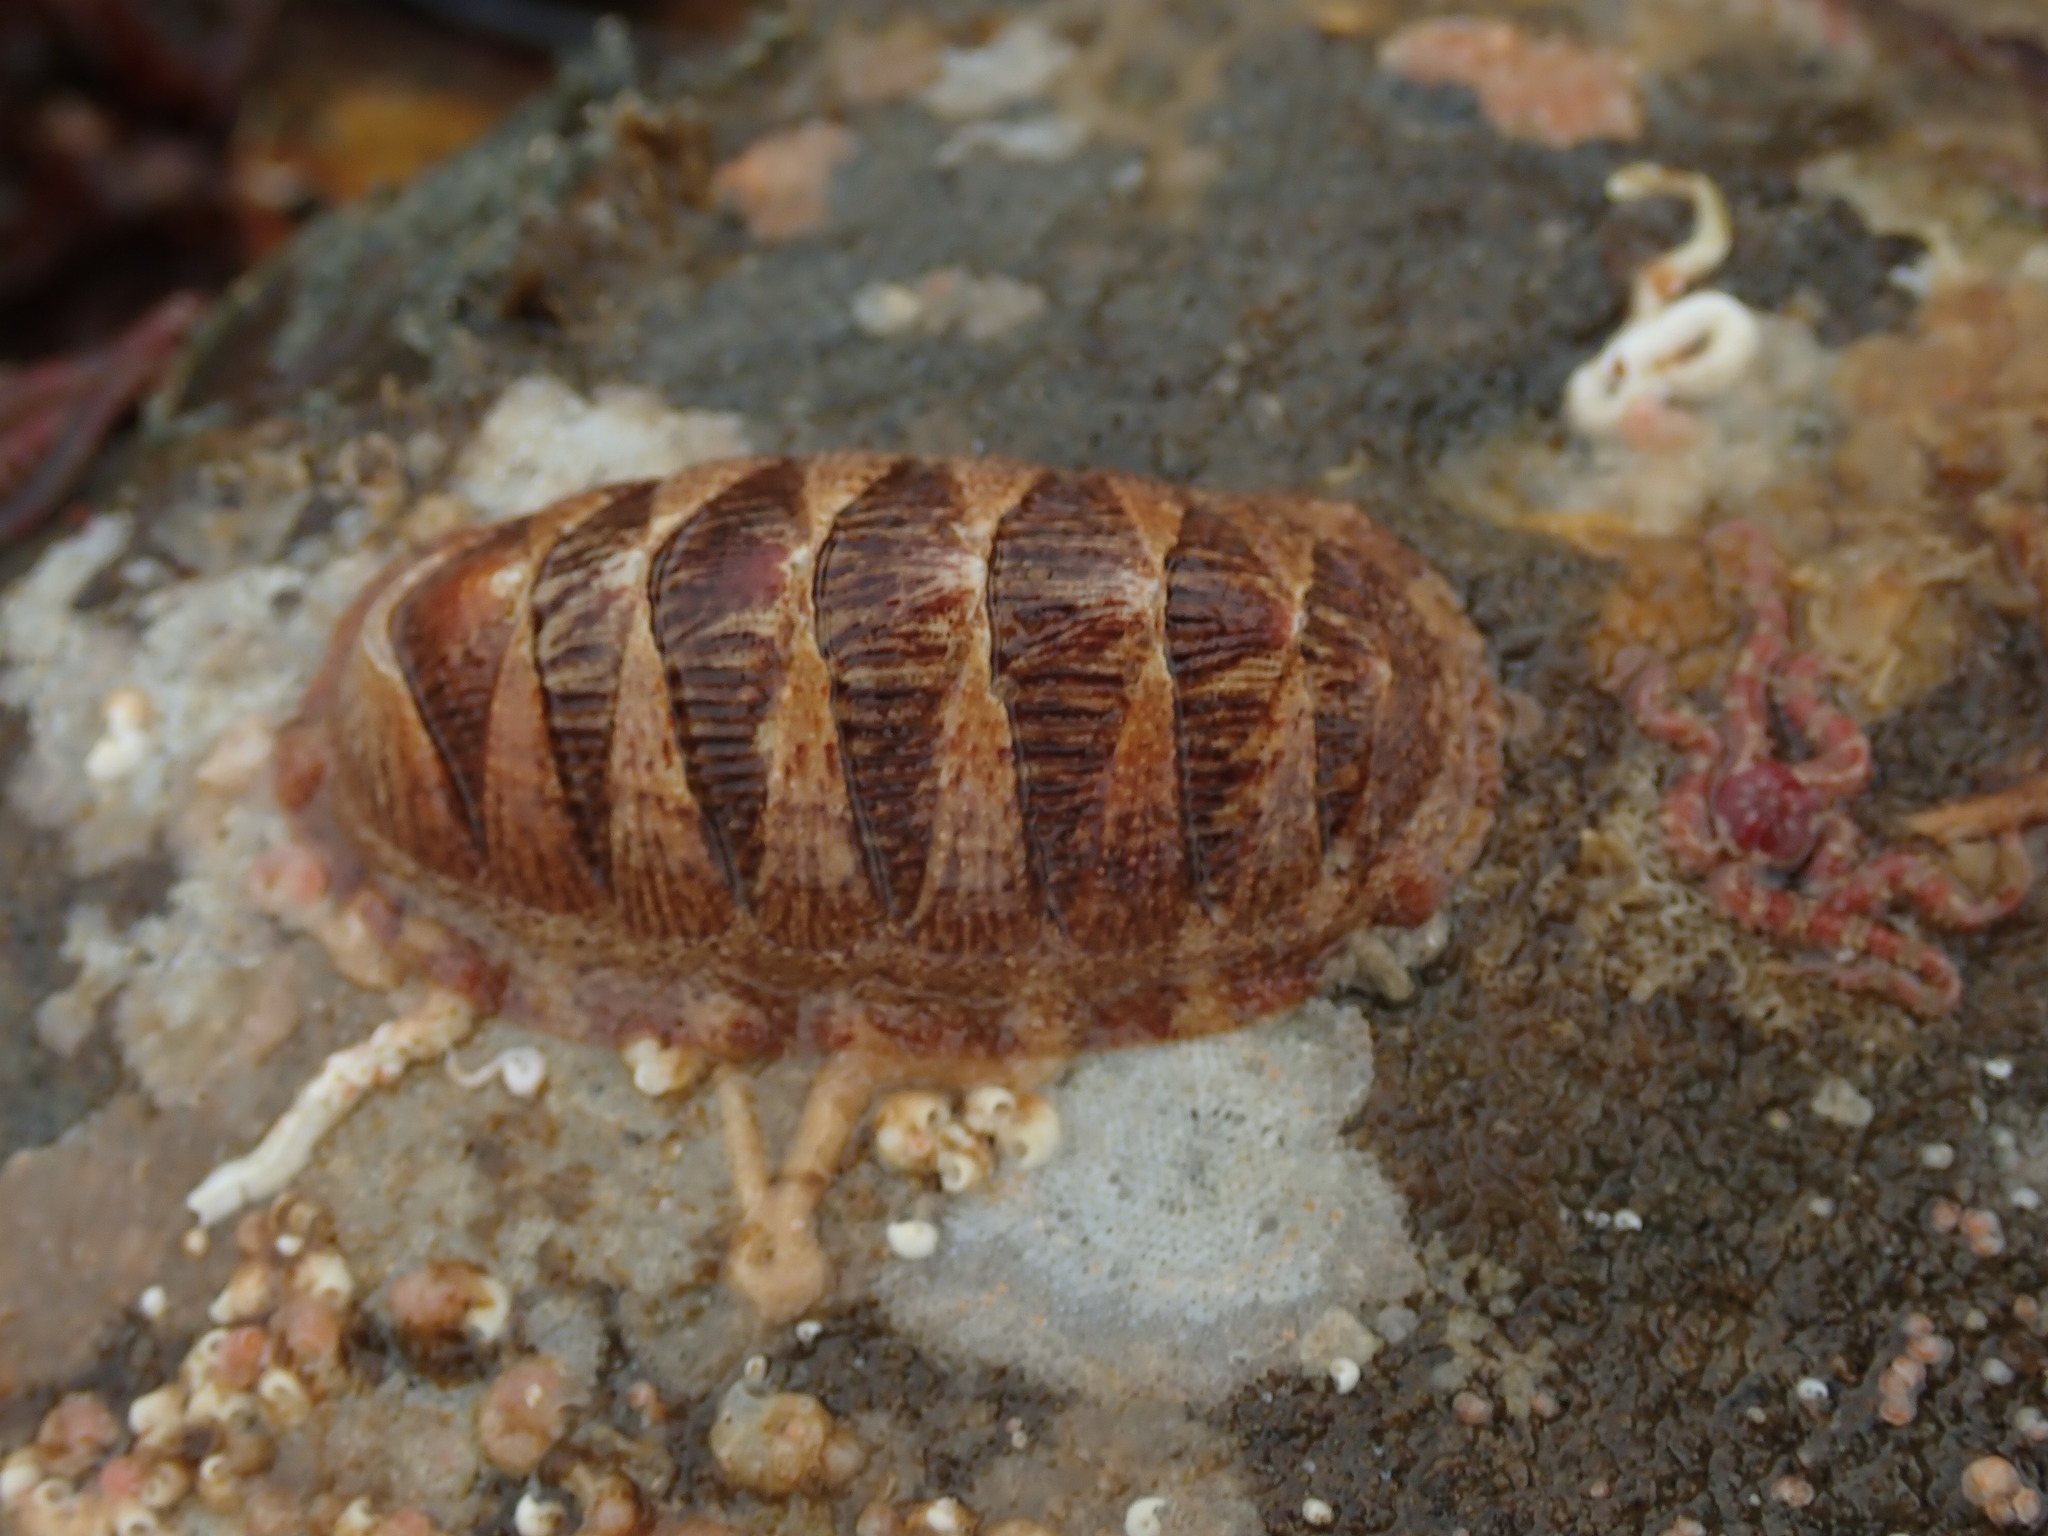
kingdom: Animalia
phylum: Mollusca
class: Polyplacophora
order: Chitonida
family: Ischnochitonidae
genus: Lepidozona
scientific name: Lepidozona mertensii
